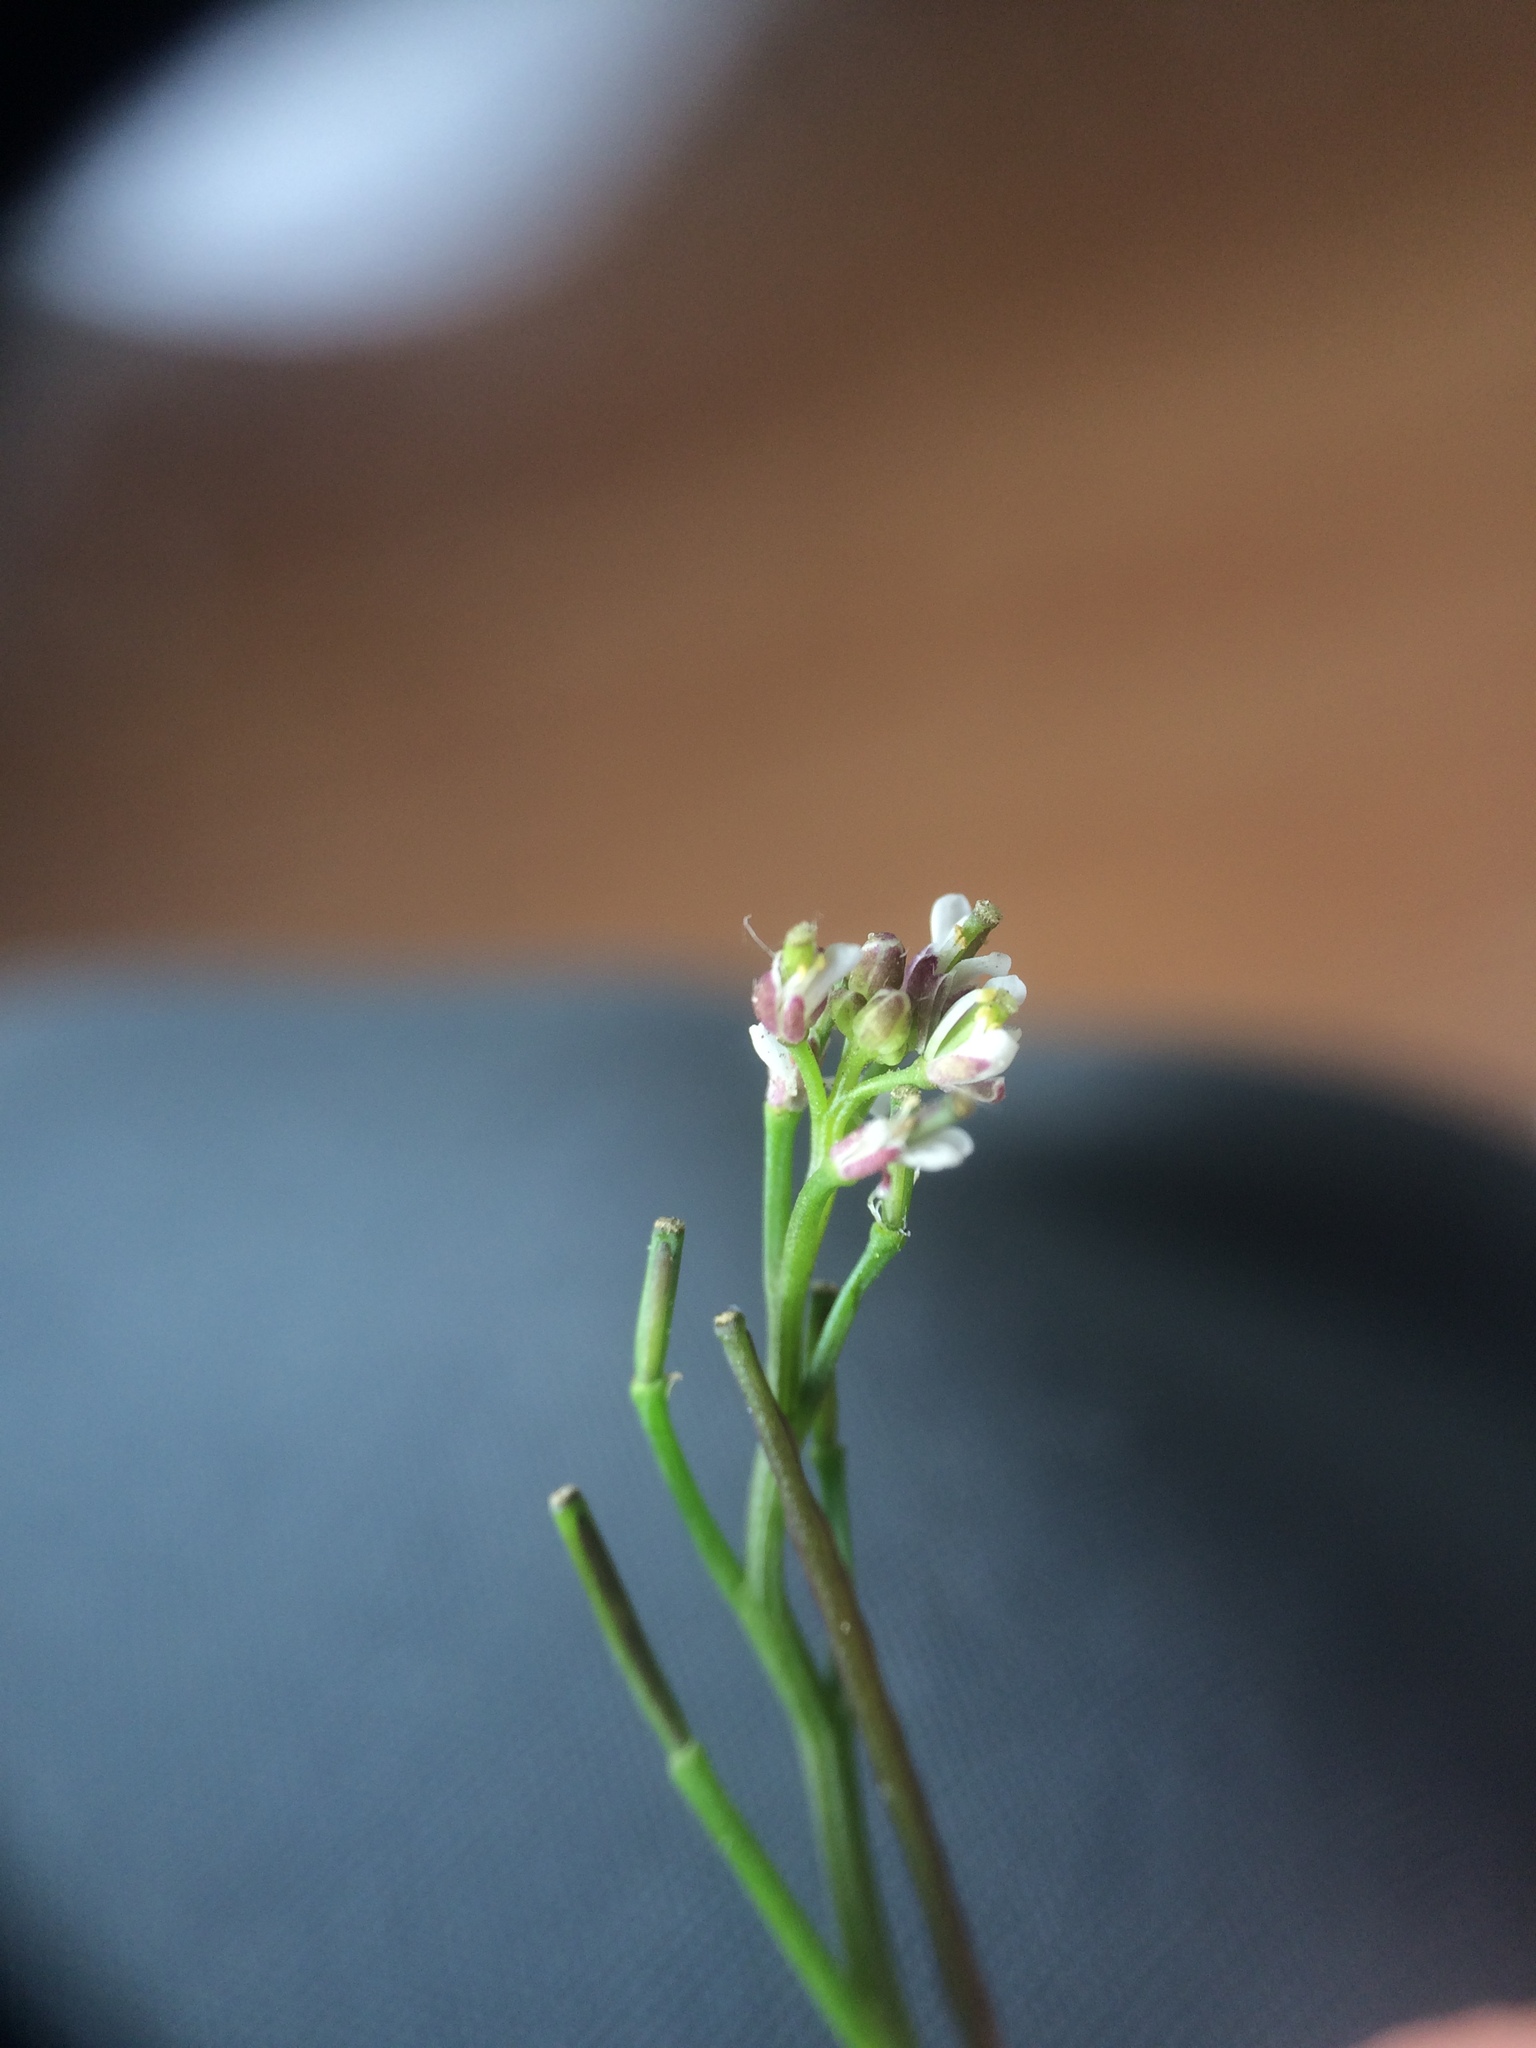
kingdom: Plantae
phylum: Tracheophyta
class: Magnoliopsida
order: Brassicales
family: Brassicaceae
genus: Cardamine
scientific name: Cardamine hirsuta
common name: Hairy bittercress
